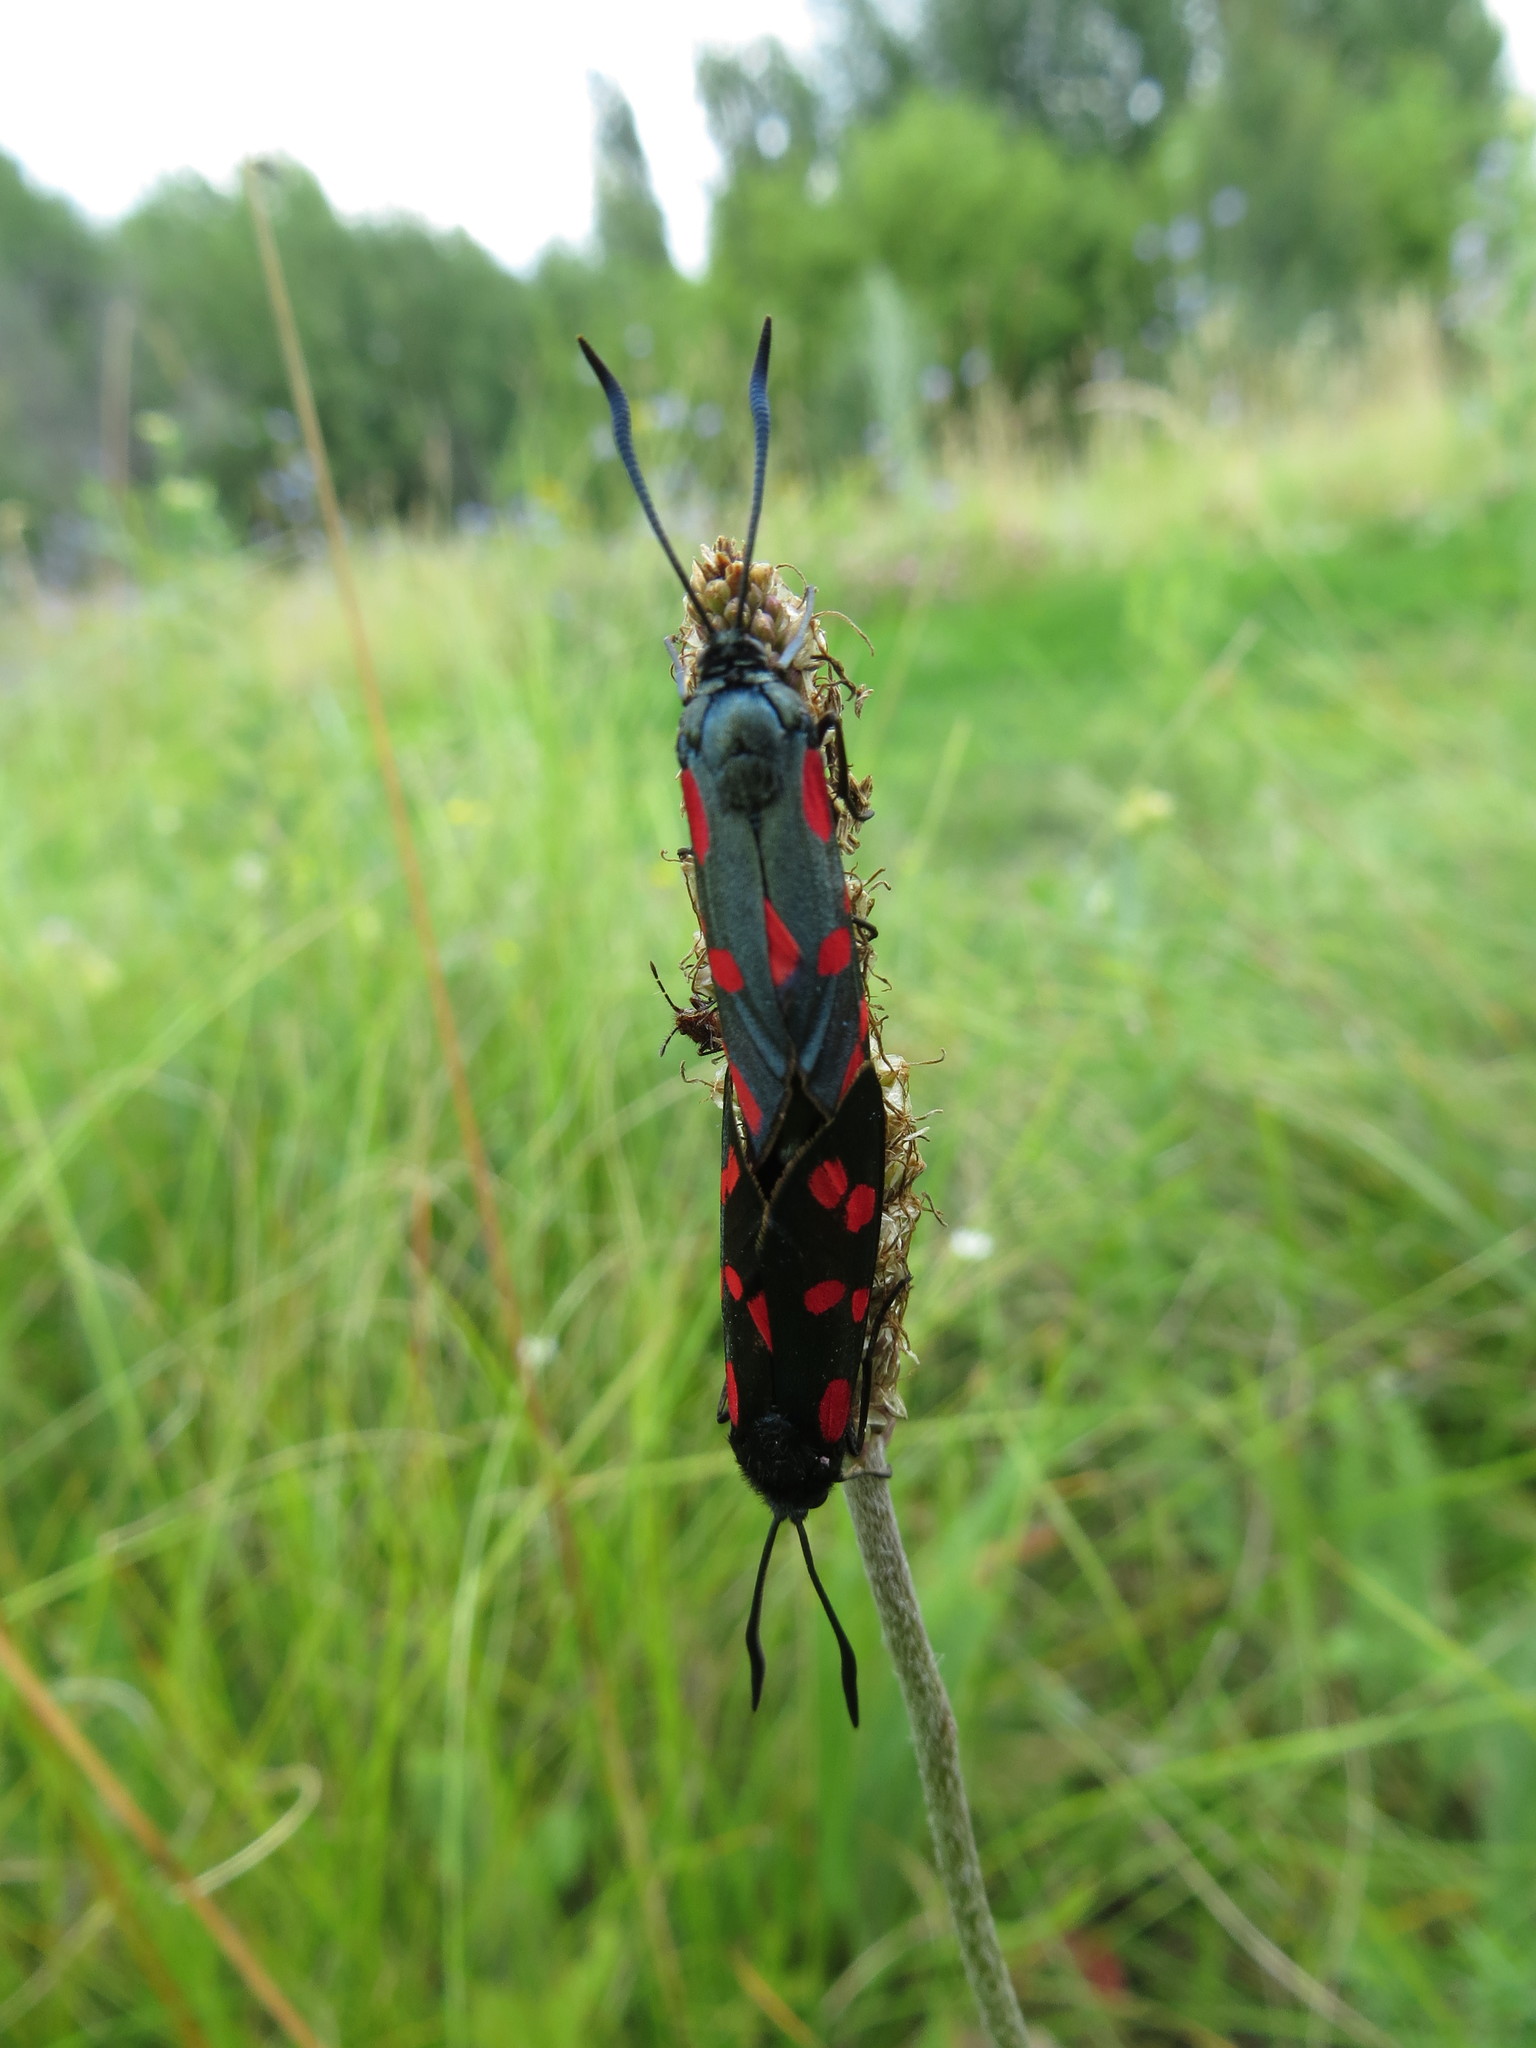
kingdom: Animalia
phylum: Arthropoda
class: Insecta
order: Lepidoptera
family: Zygaenidae
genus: Zygaena
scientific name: Zygaena filipendulae
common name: Six-spot burnet
